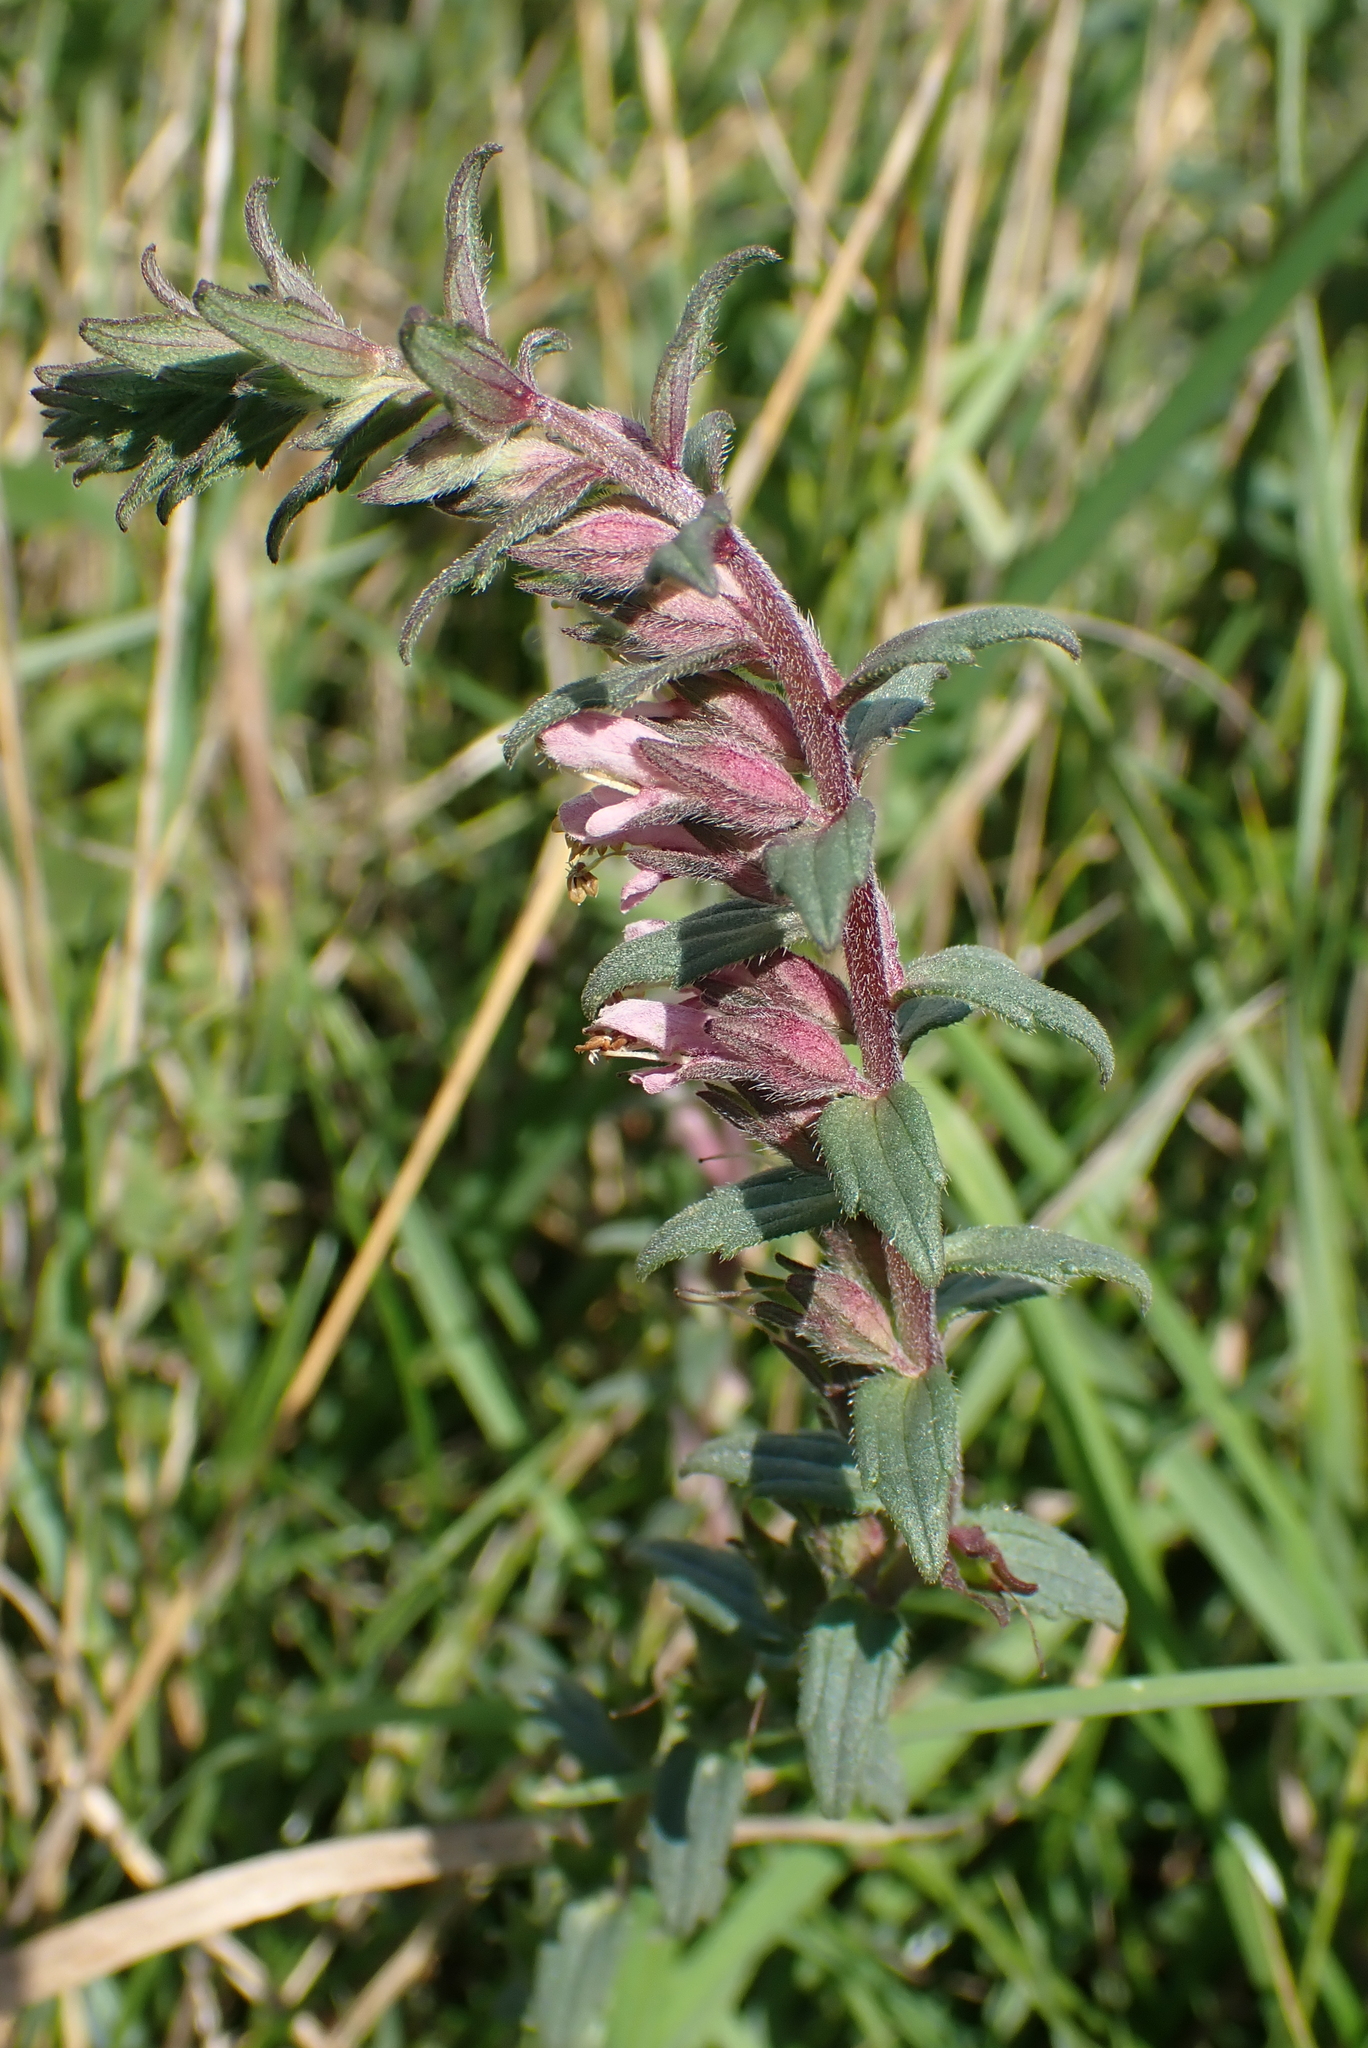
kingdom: Plantae
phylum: Tracheophyta
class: Magnoliopsida
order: Lamiales
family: Orobanchaceae
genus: Odontites
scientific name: Odontites vulgaris
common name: Broomrape
